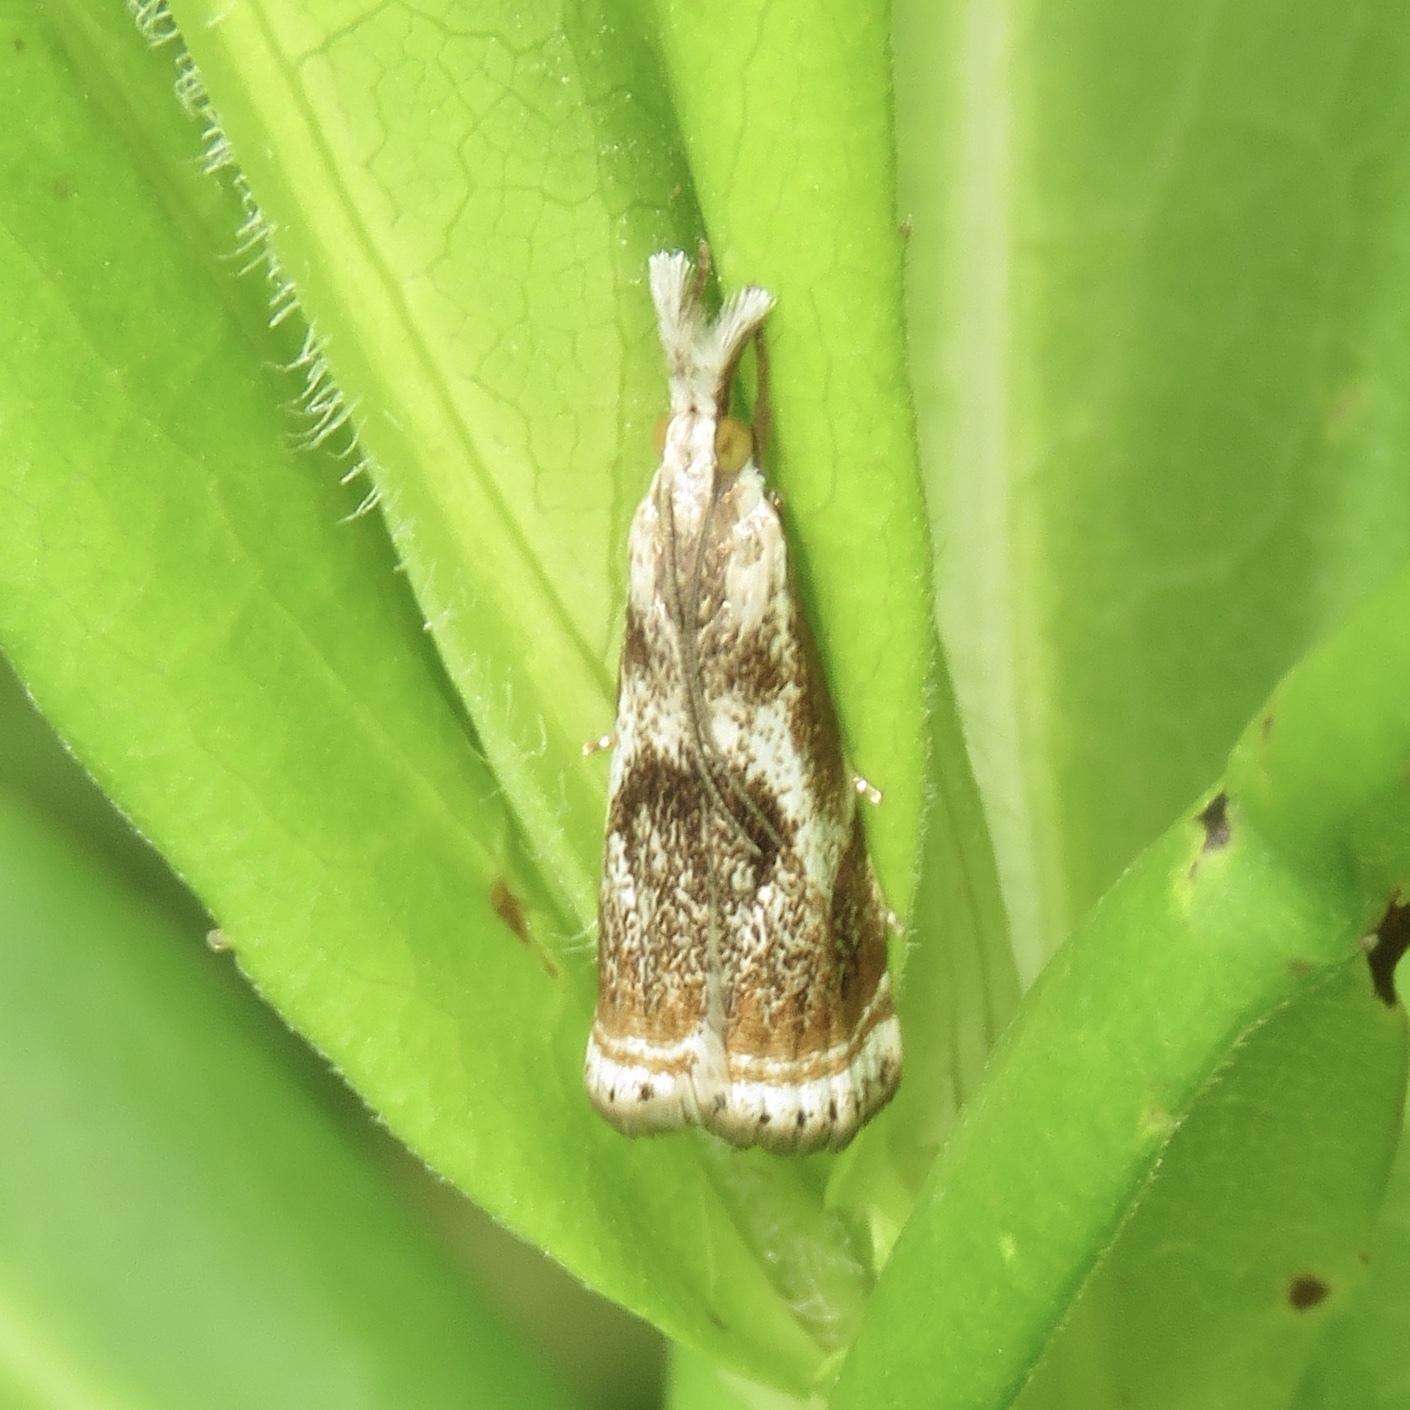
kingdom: Animalia
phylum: Arthropoda
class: Insecta
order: Lepidoptera
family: Crambidae
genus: Microcrambus
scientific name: Microcrambus elegans
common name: Elegant grass-veneer
